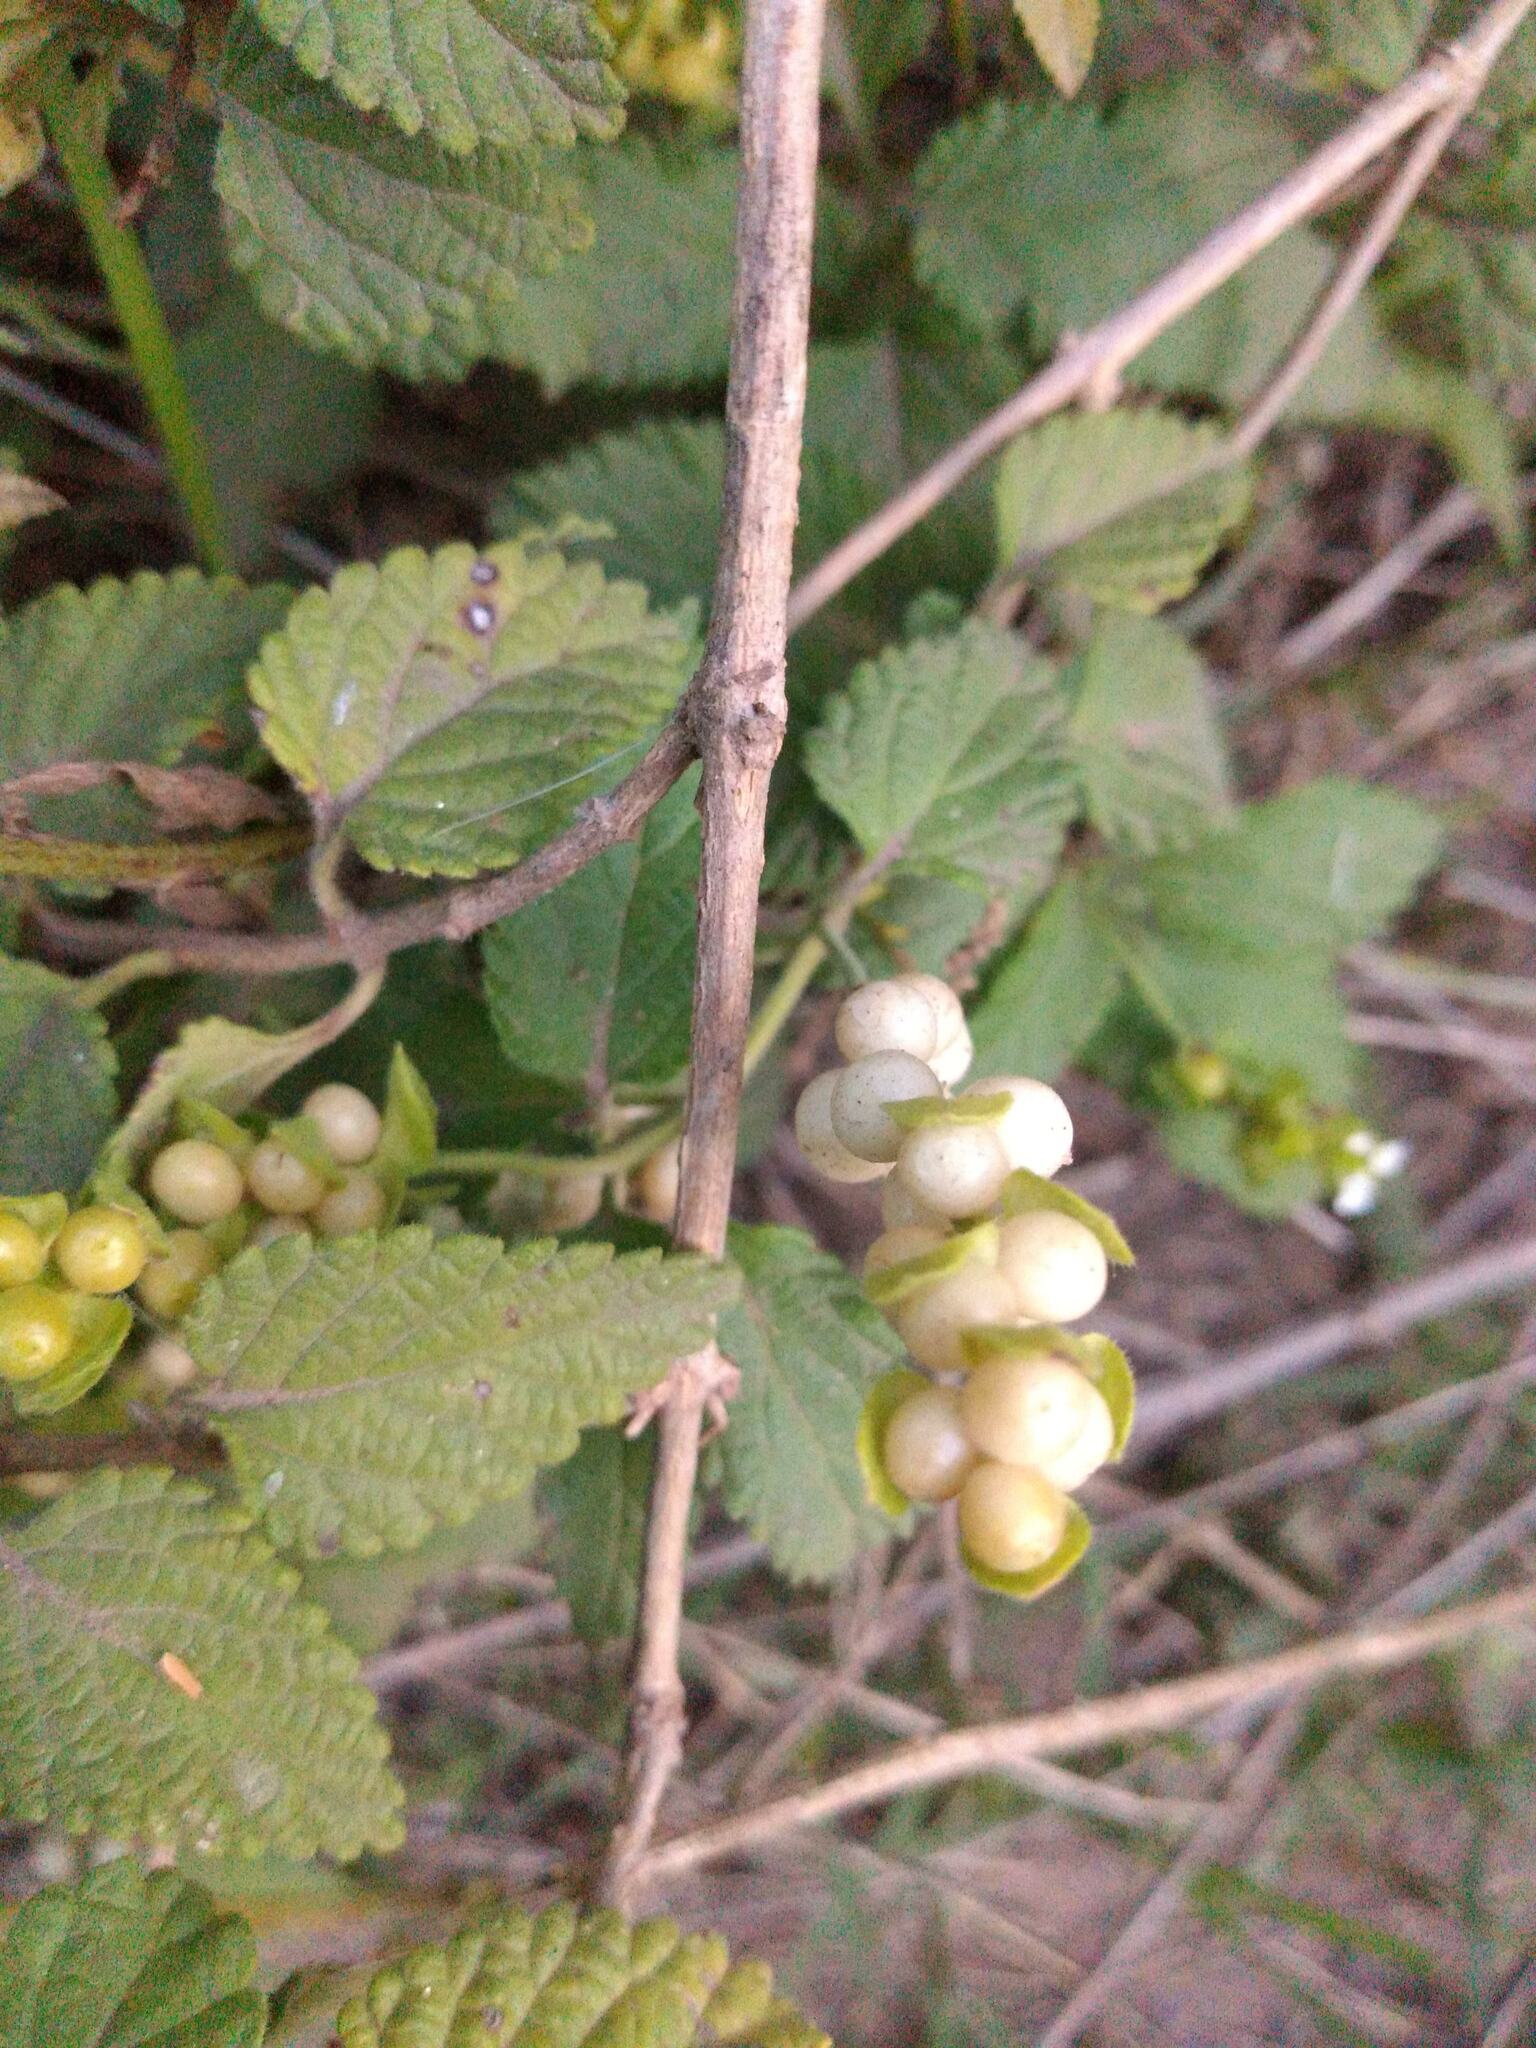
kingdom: Plantae
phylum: Tracheophyta
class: Magnoliopsida
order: Lamiales
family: Verbenaceae
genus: Lantana
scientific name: Lantana grisebachii
